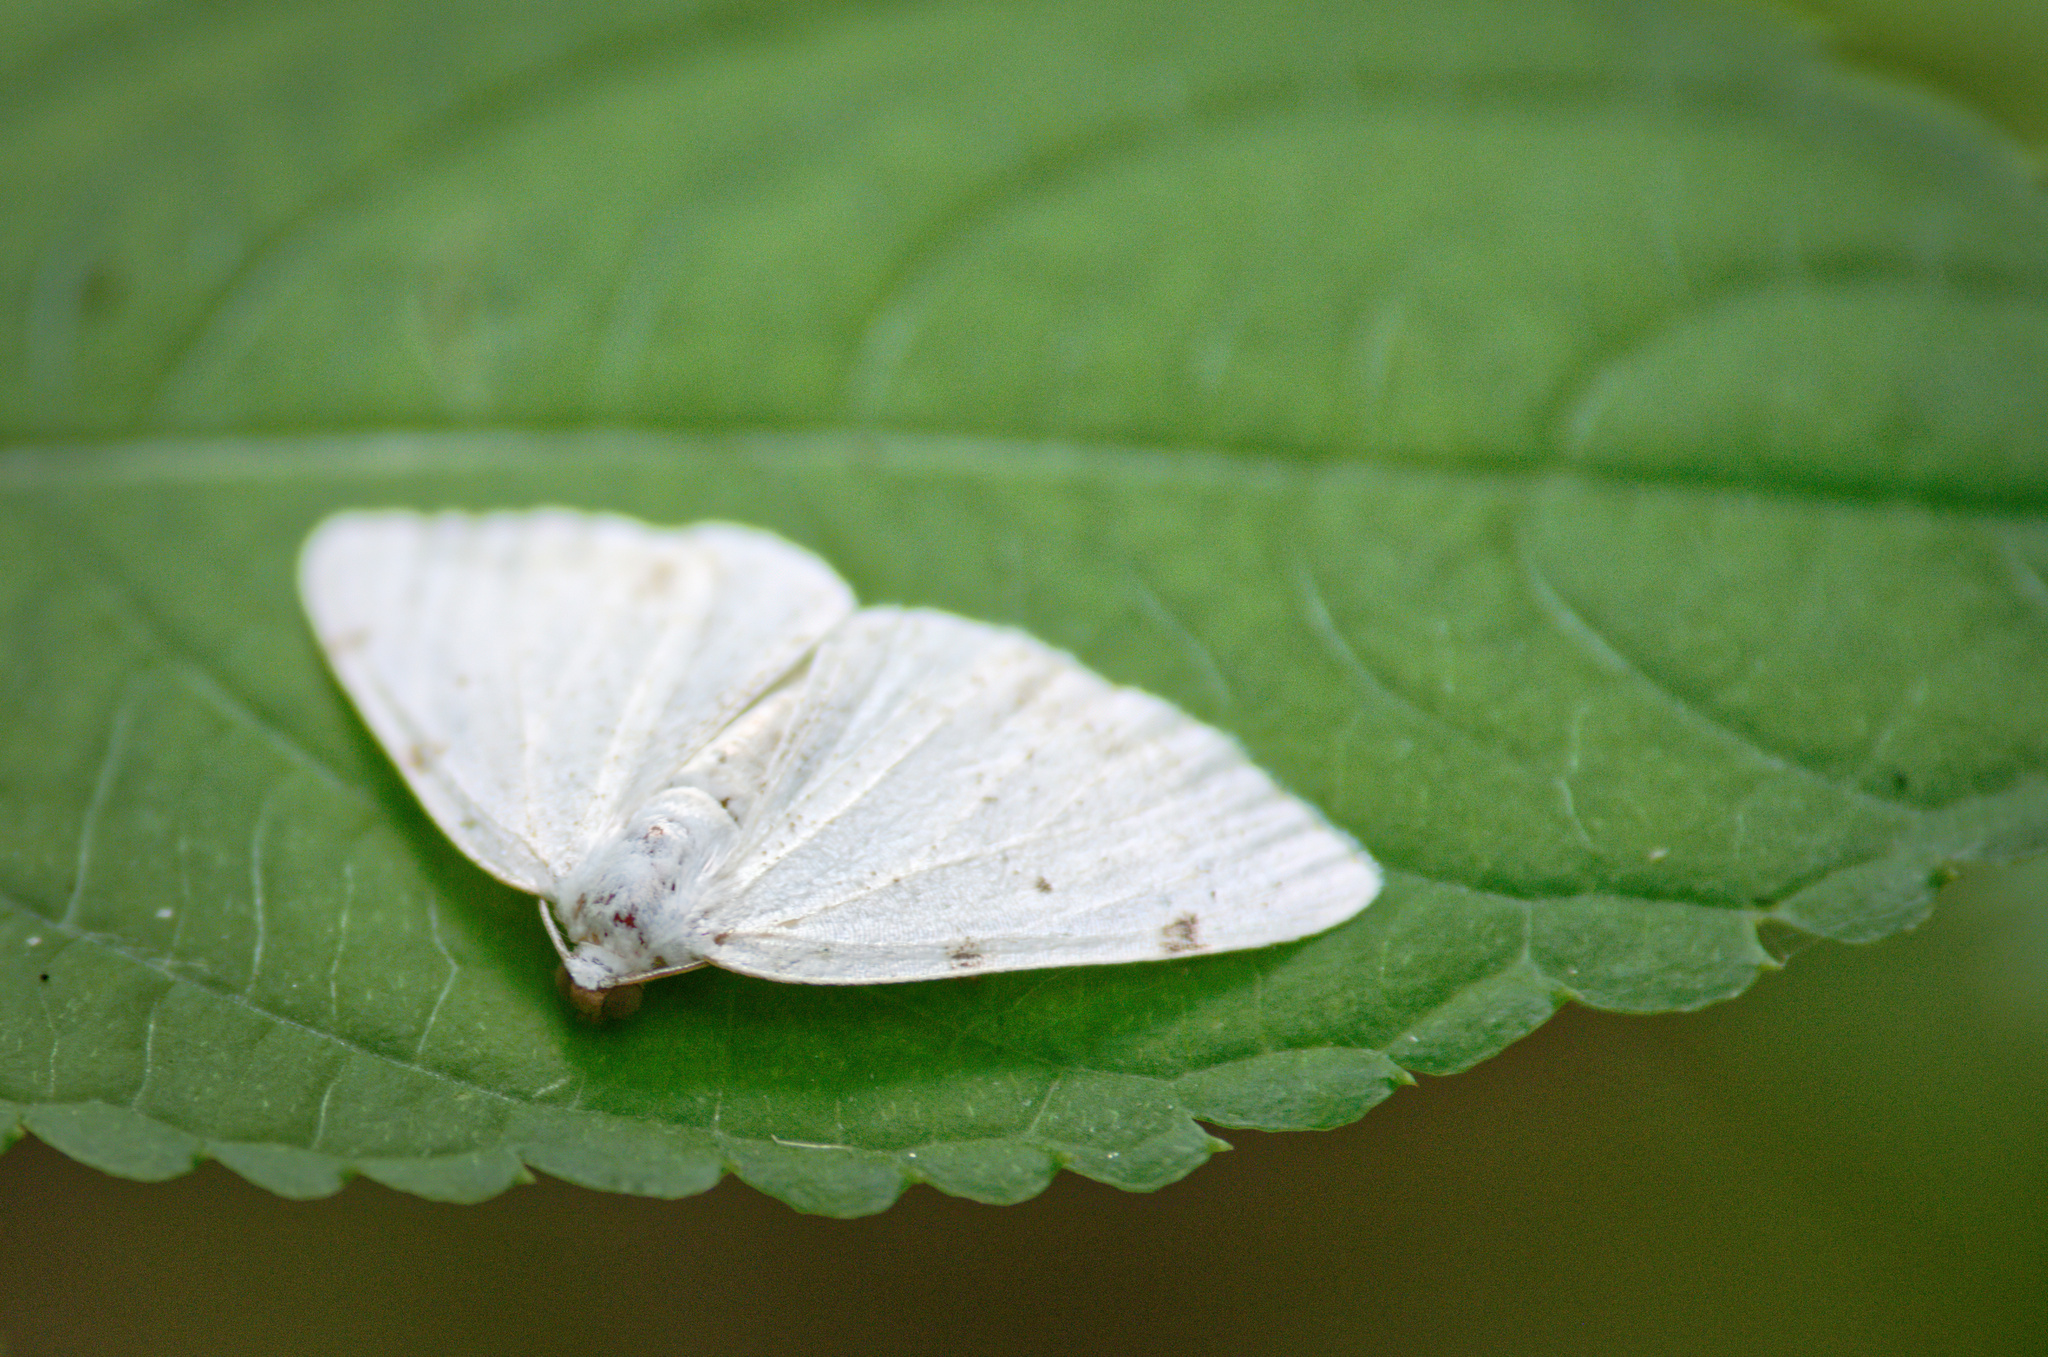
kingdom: Animalia
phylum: Arthropoda
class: Insecta
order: Lepidoptera
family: Geometridae
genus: Lomographa
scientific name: Lomographa bimaculata
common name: White-pinion spotted
